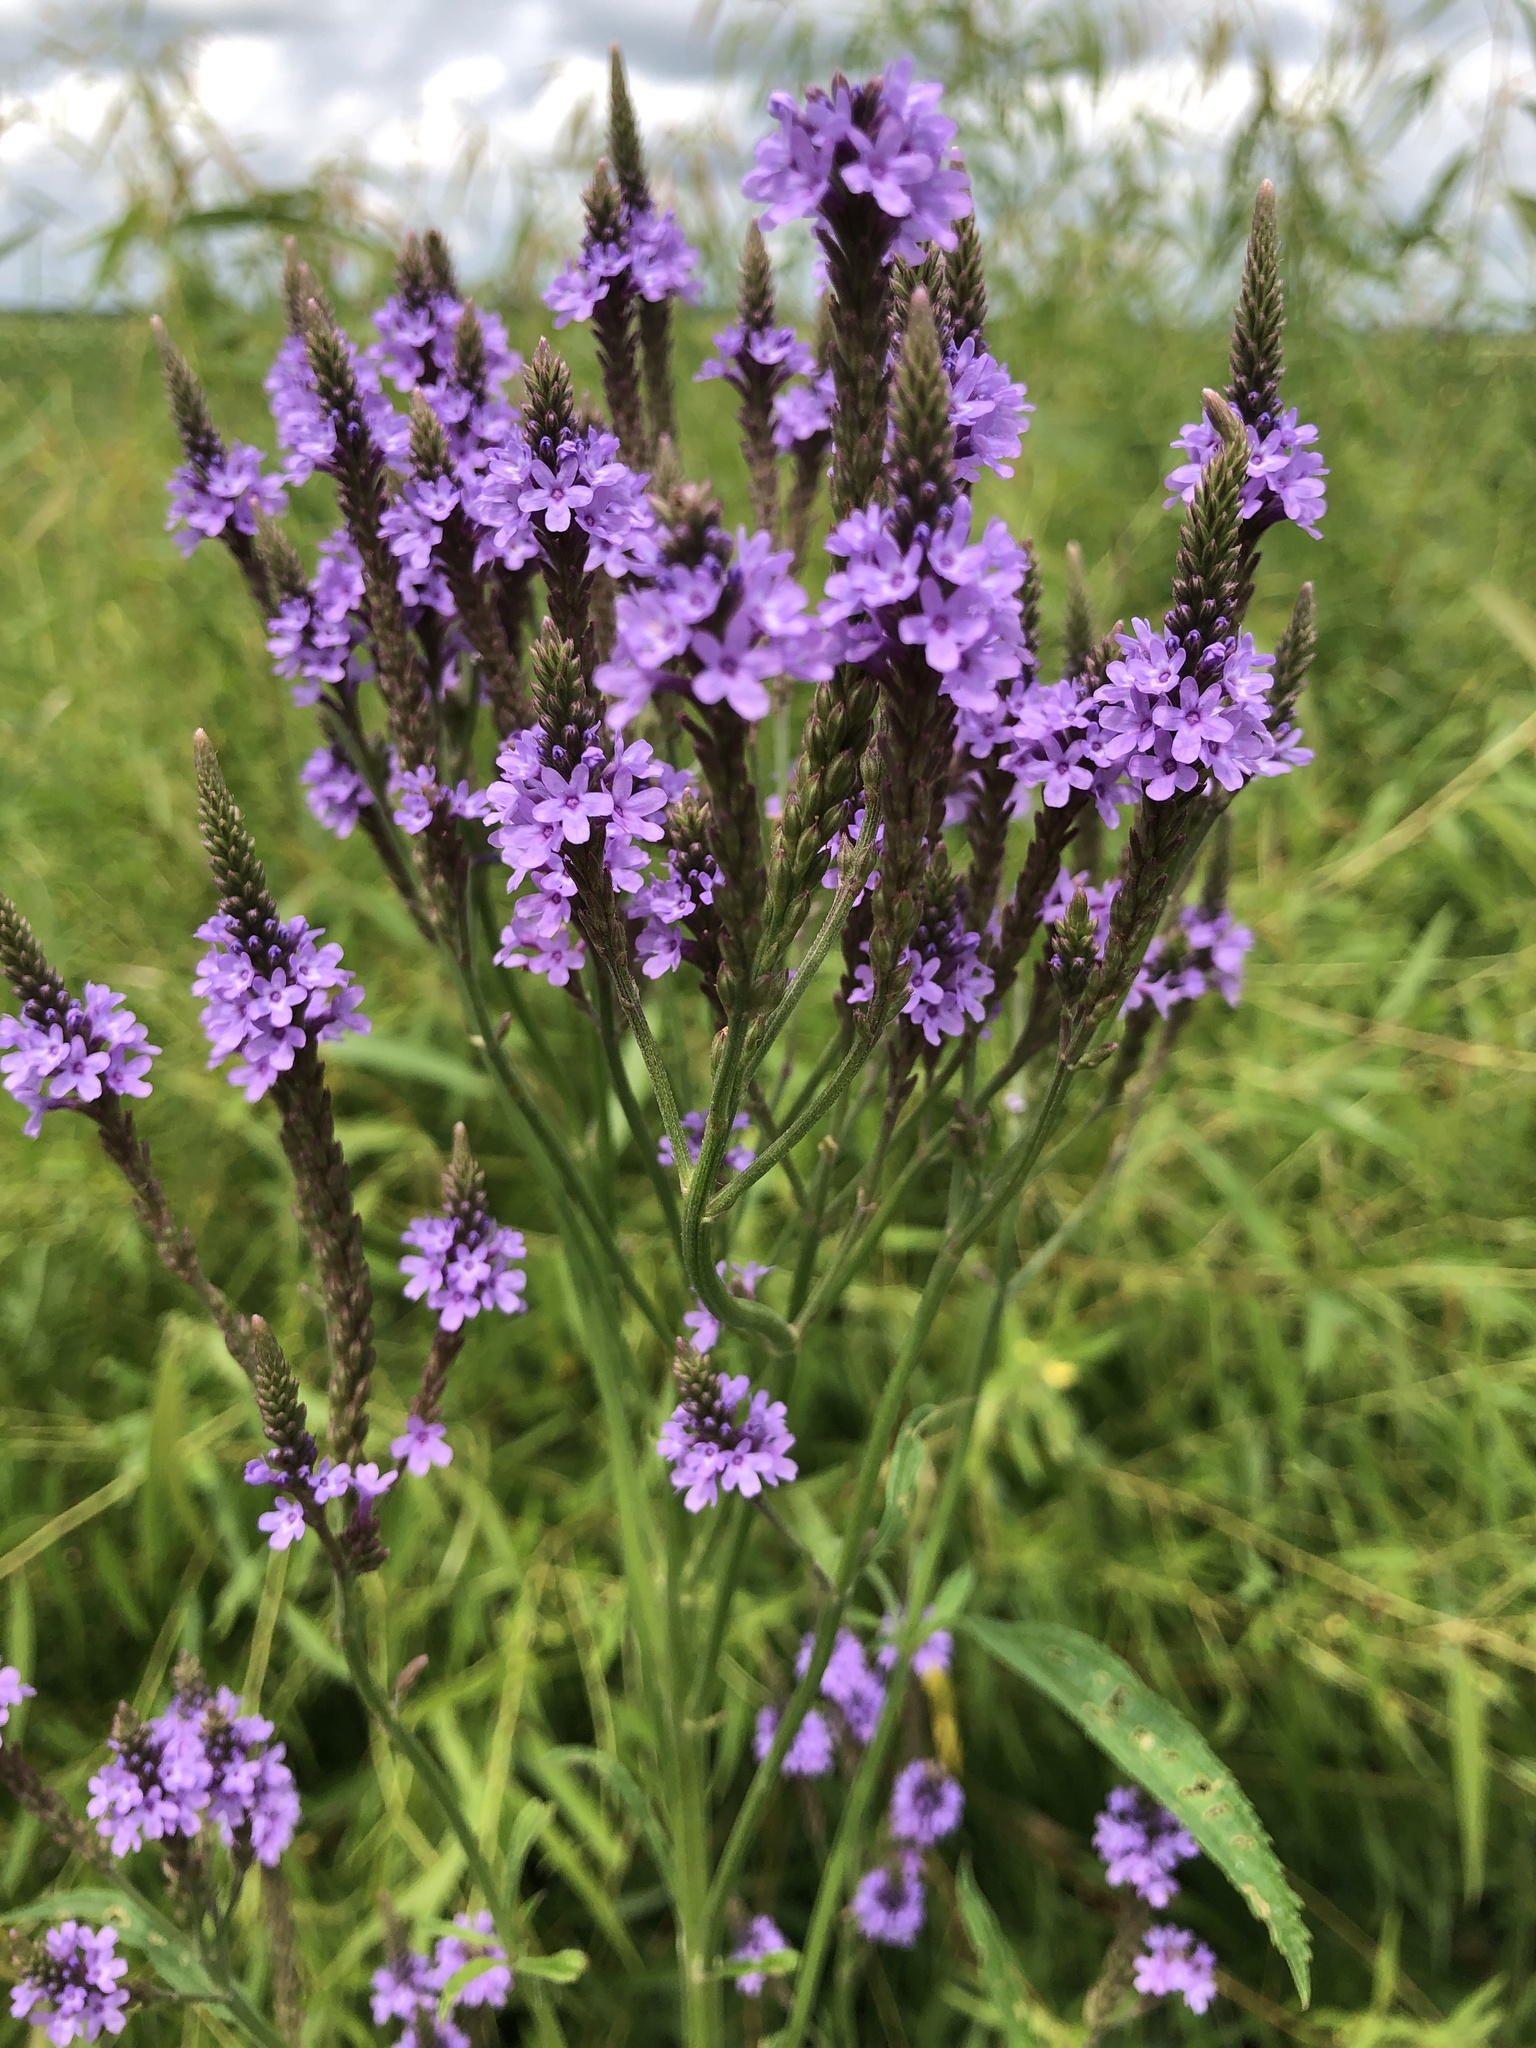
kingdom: Plantae
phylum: Tracheophyta
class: Magnoliopsida
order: Lamiales
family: Verbenaceae
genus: Verbena
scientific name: Verbena hastata
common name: American blue vervain
